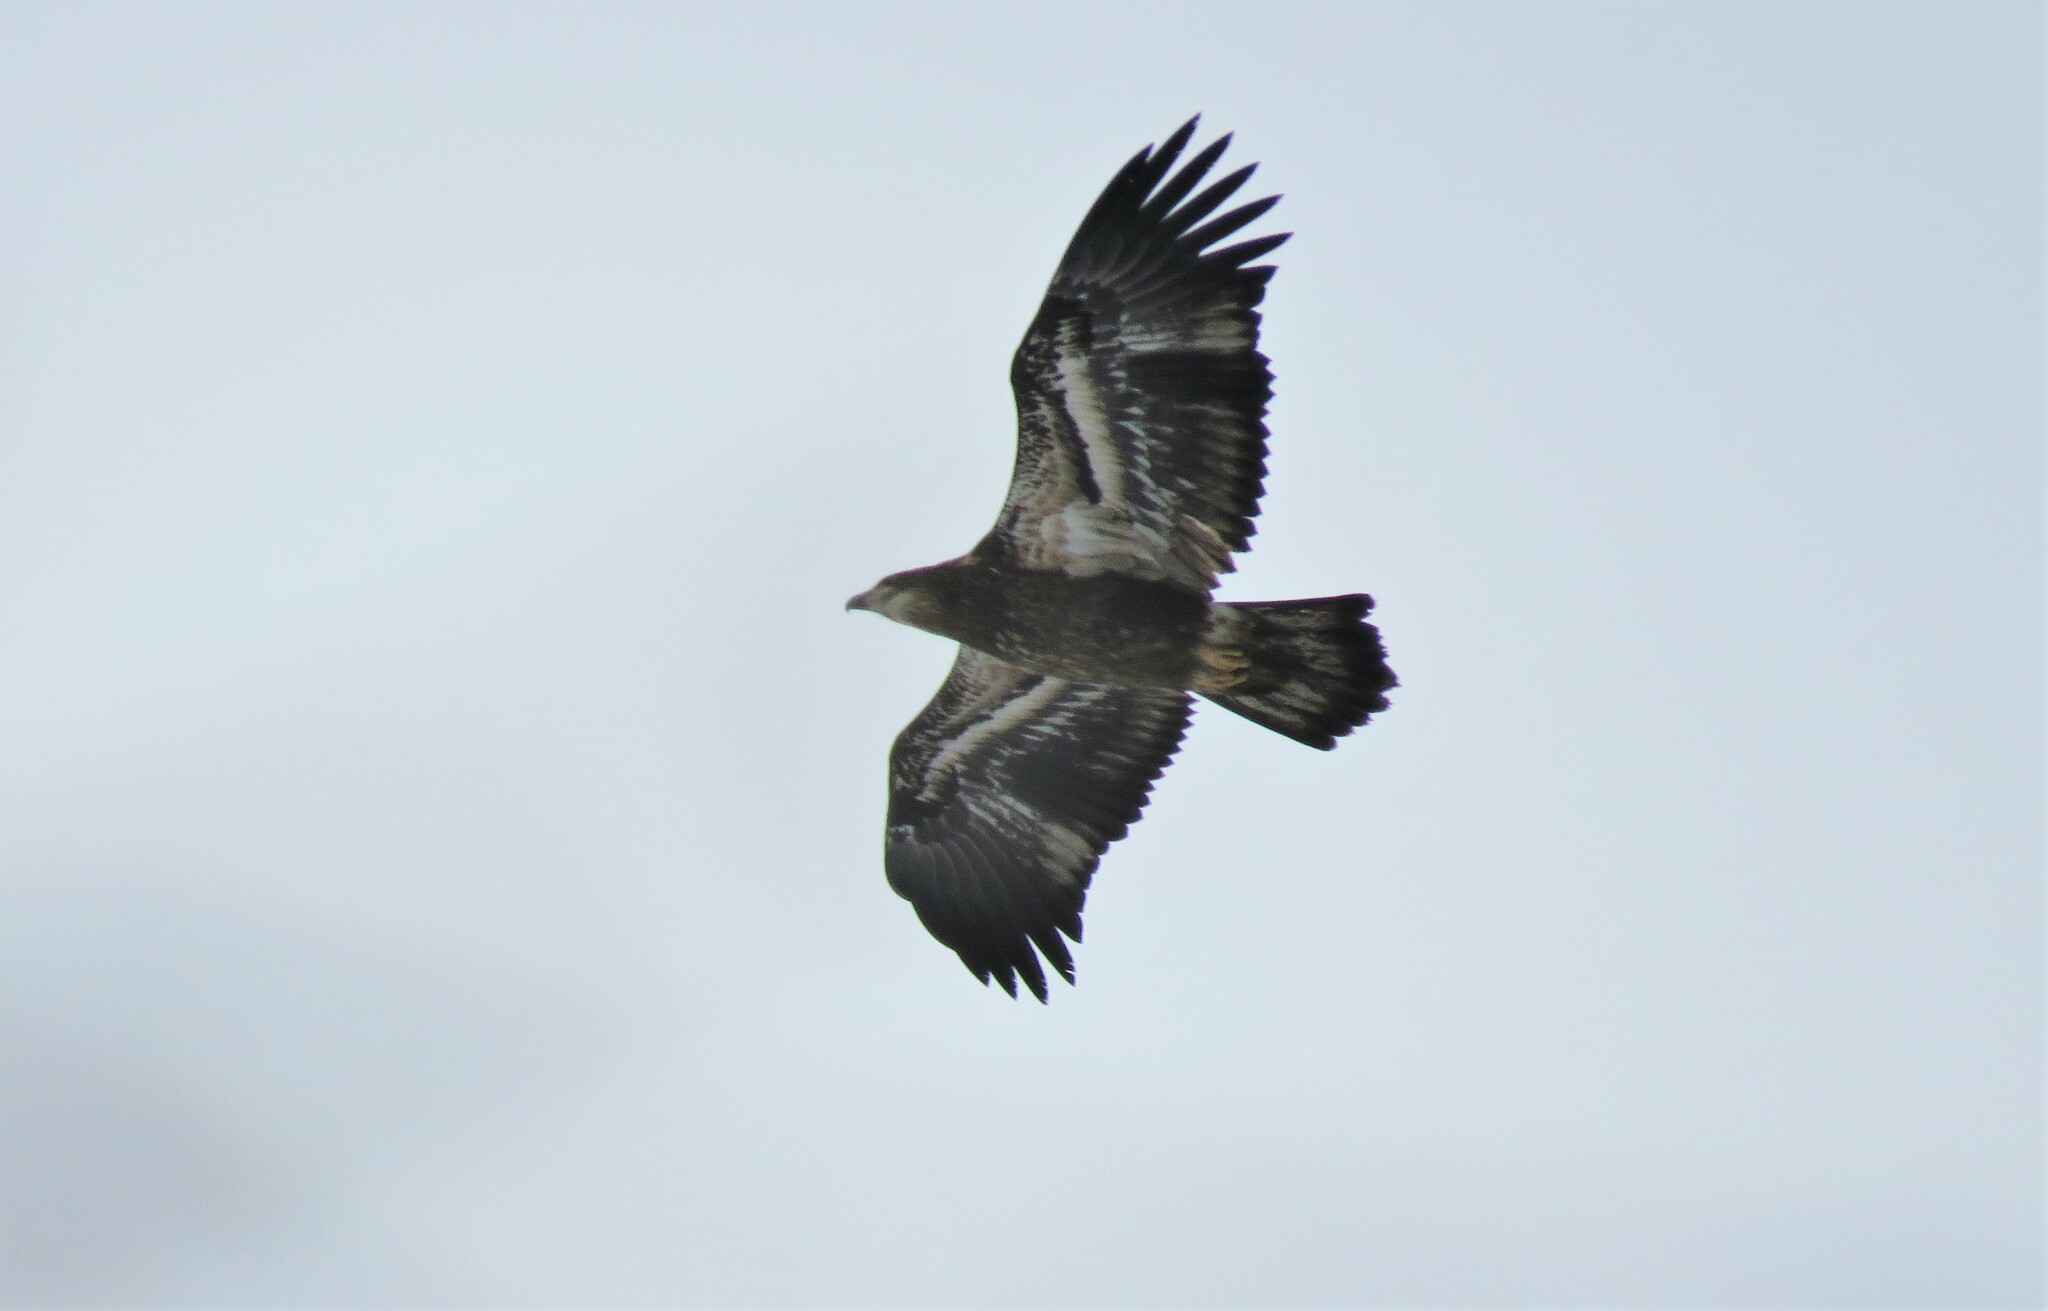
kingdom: Animalia
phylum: Chordata
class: Aves
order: Accipitriformes
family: Accipitridae
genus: Haliaeetus
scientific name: Haliaeetus leucocephalus
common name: Bald eagle
